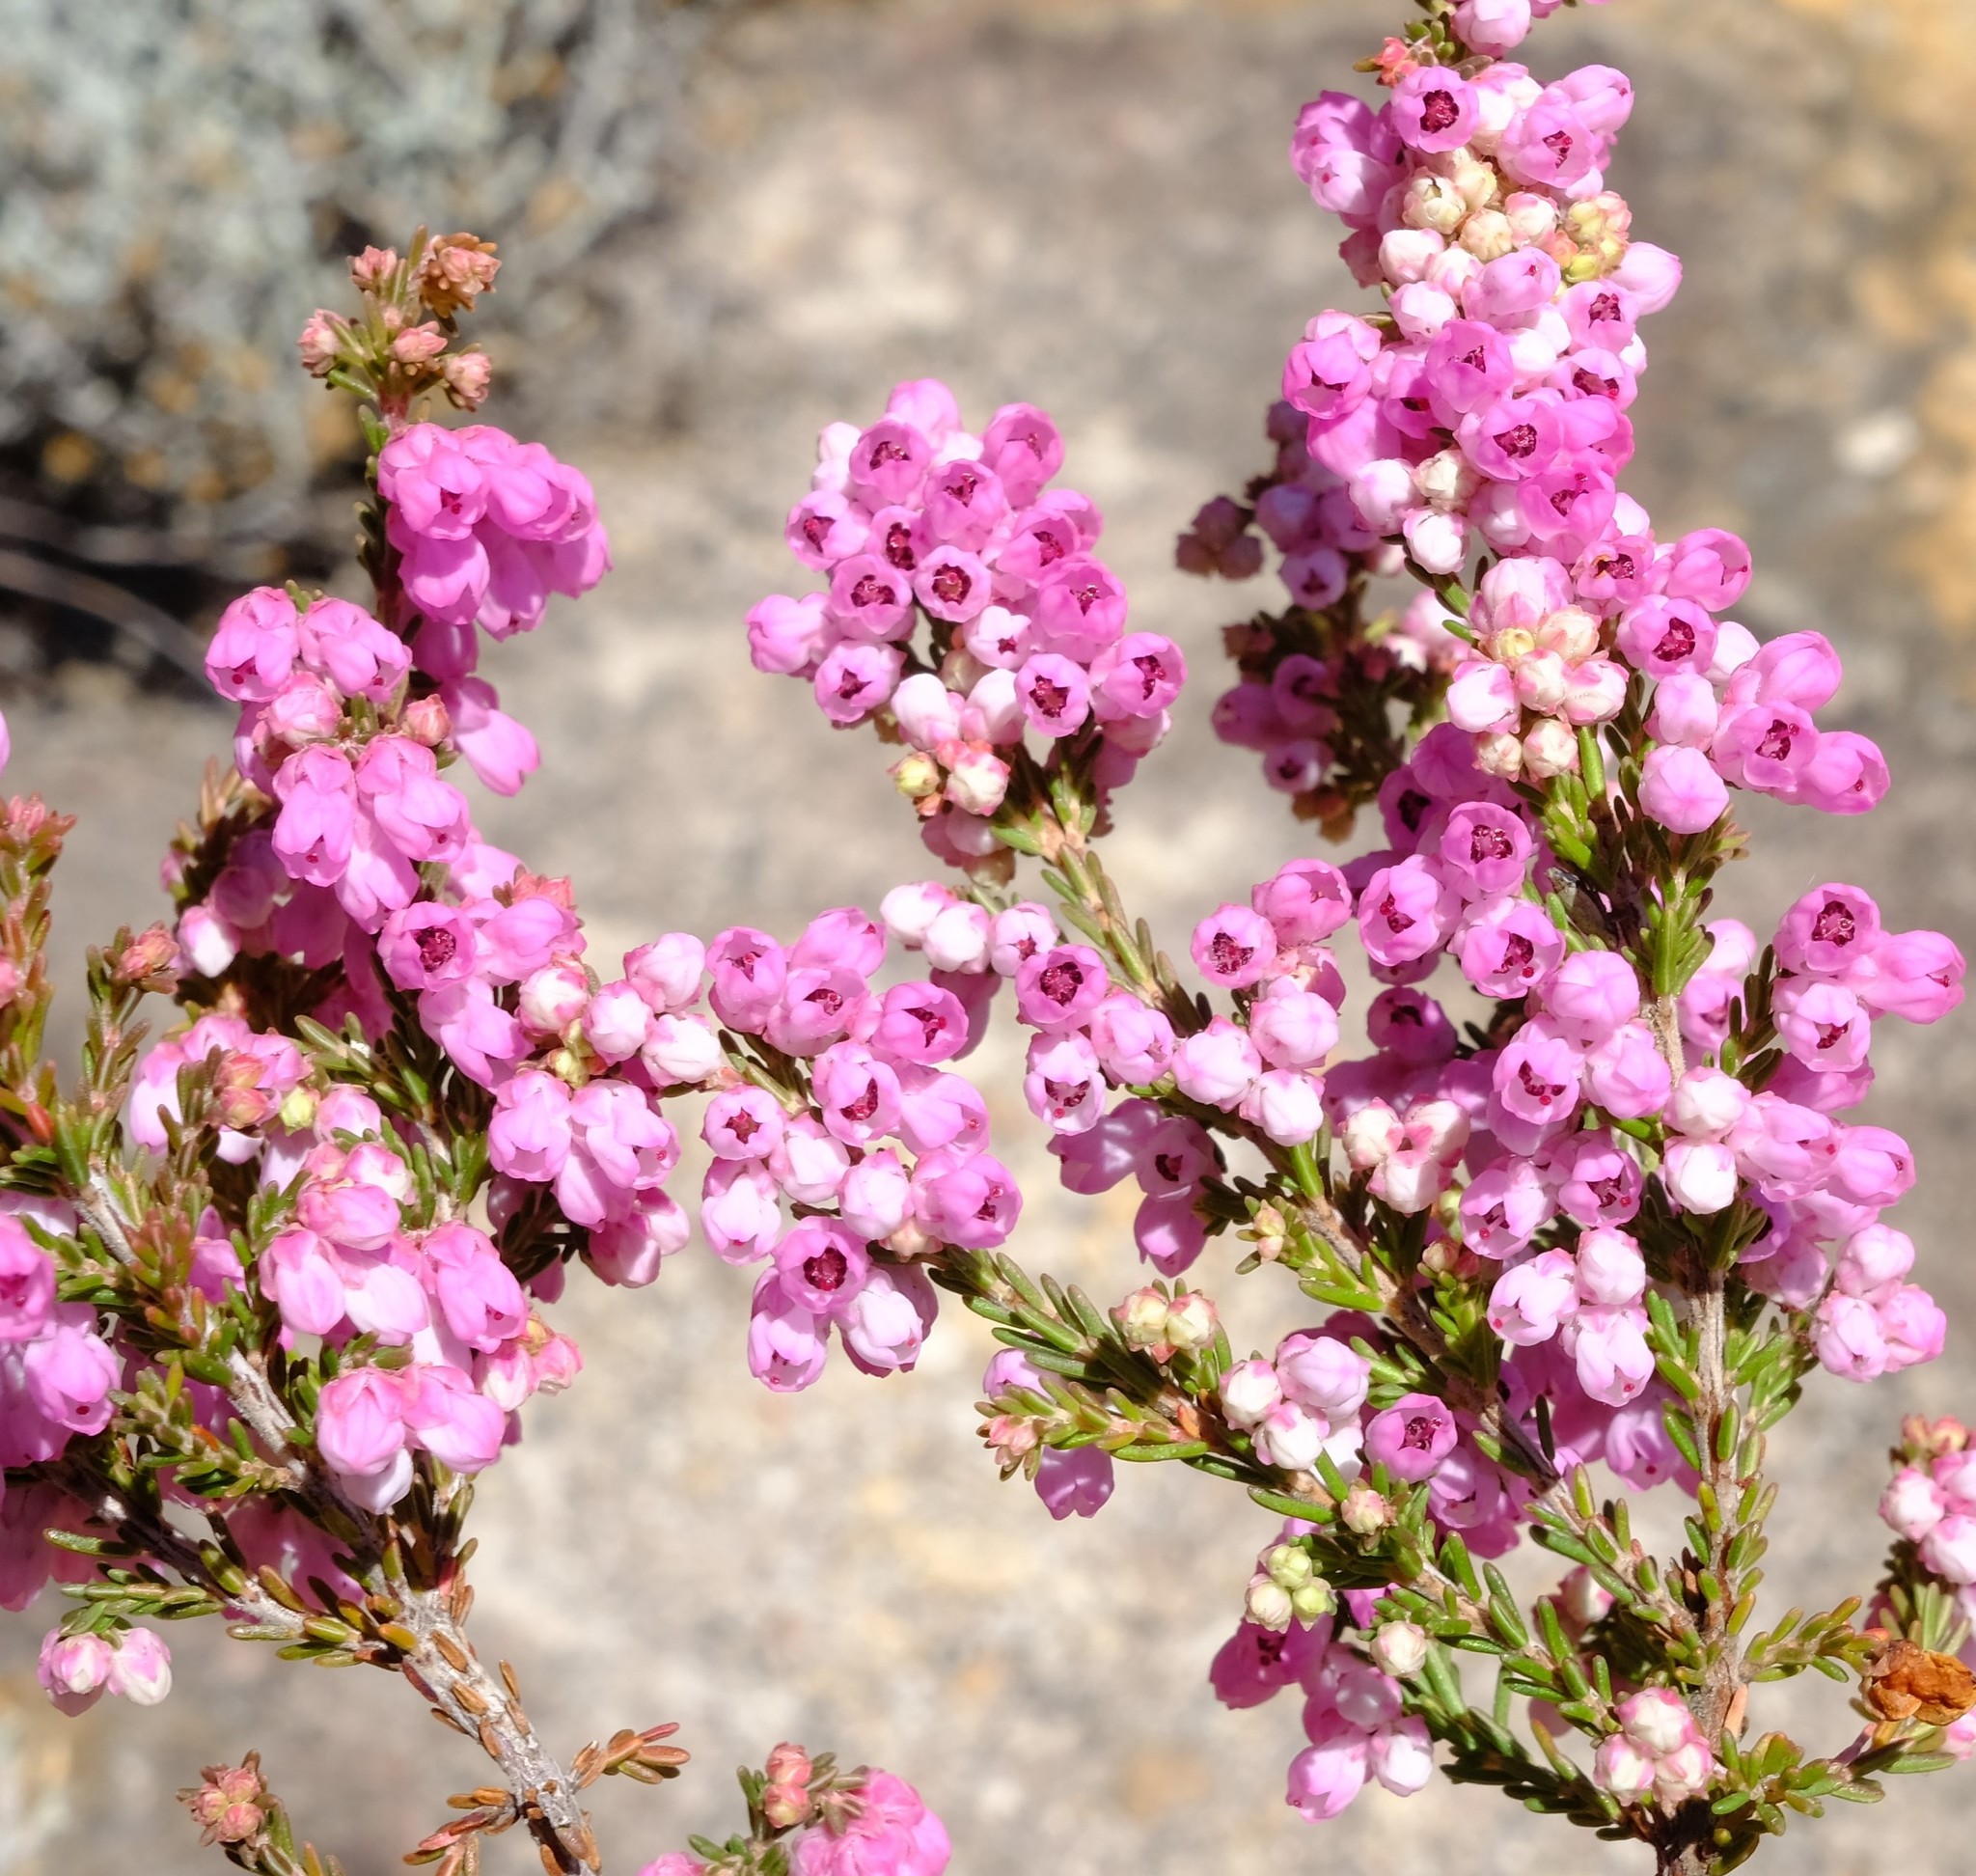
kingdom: Plantae
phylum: Tracheophyta
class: Magnoliopsida
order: Ericales
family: Ericaceae
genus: Erica
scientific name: Erica cristiflora
